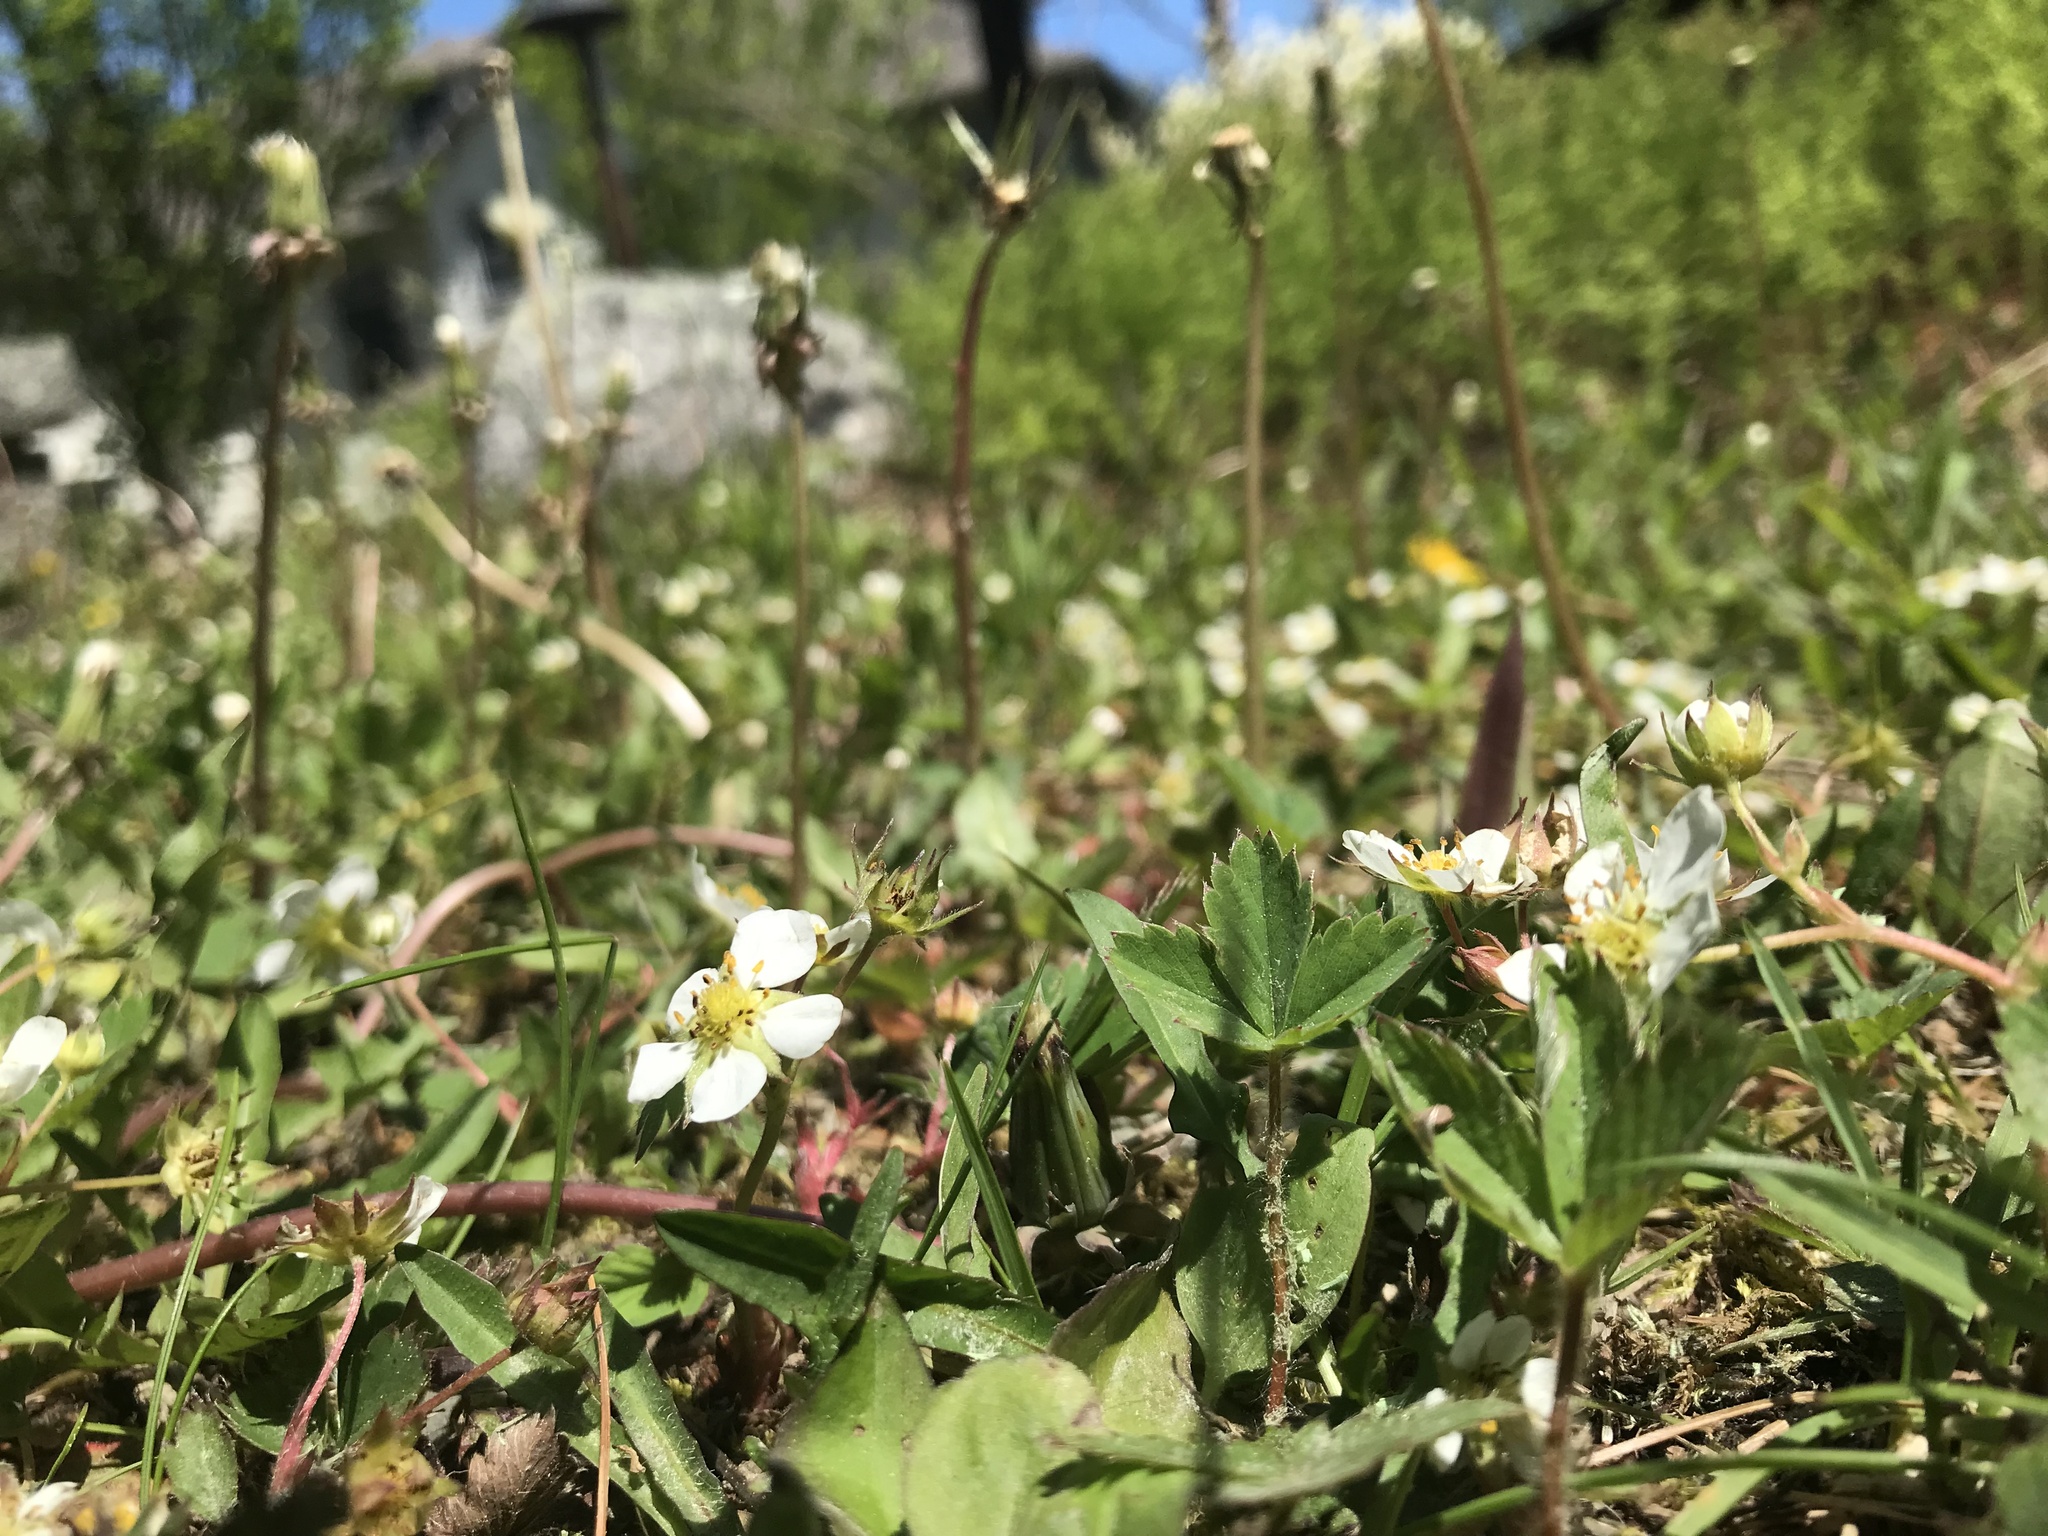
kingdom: Plantae
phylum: Tracheophyta
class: Magnoliopsida
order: Rosales
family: Rosaceae
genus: Fragaria
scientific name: Fragaria virginiana
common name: Thickleaved wild strawberry
